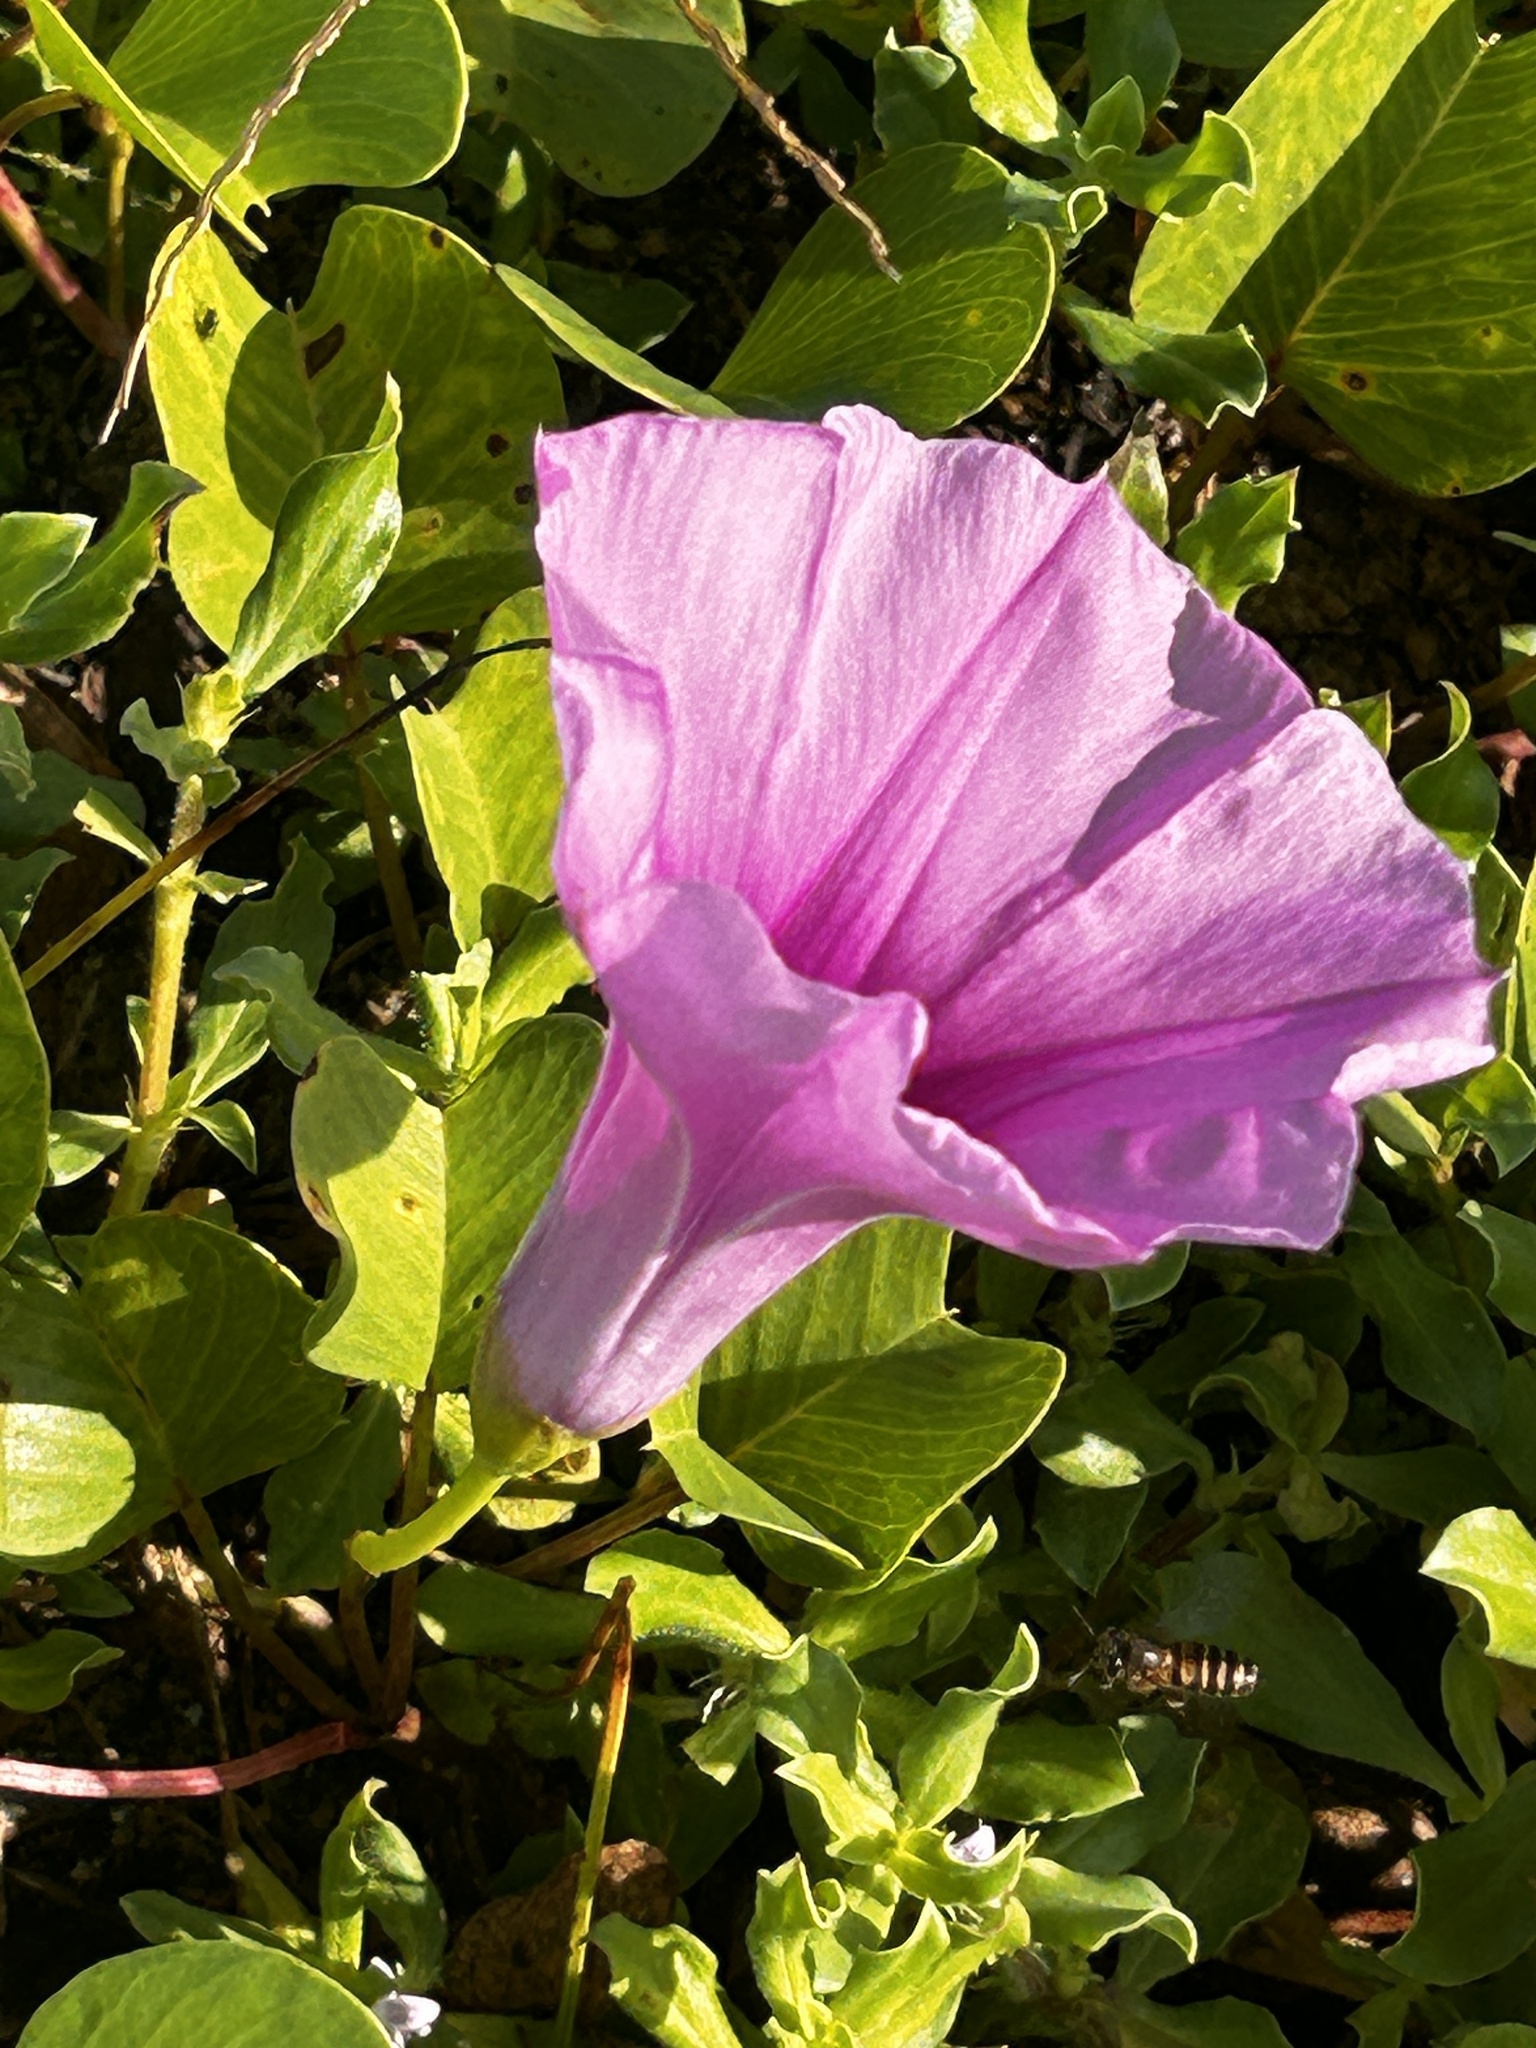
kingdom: Plantae
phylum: Tracheophyta
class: Magnoliopsida
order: Solanales
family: Convolvulaceae
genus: Ipomoea
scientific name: Ipomoea pes-caprae
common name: Beach morning glory
